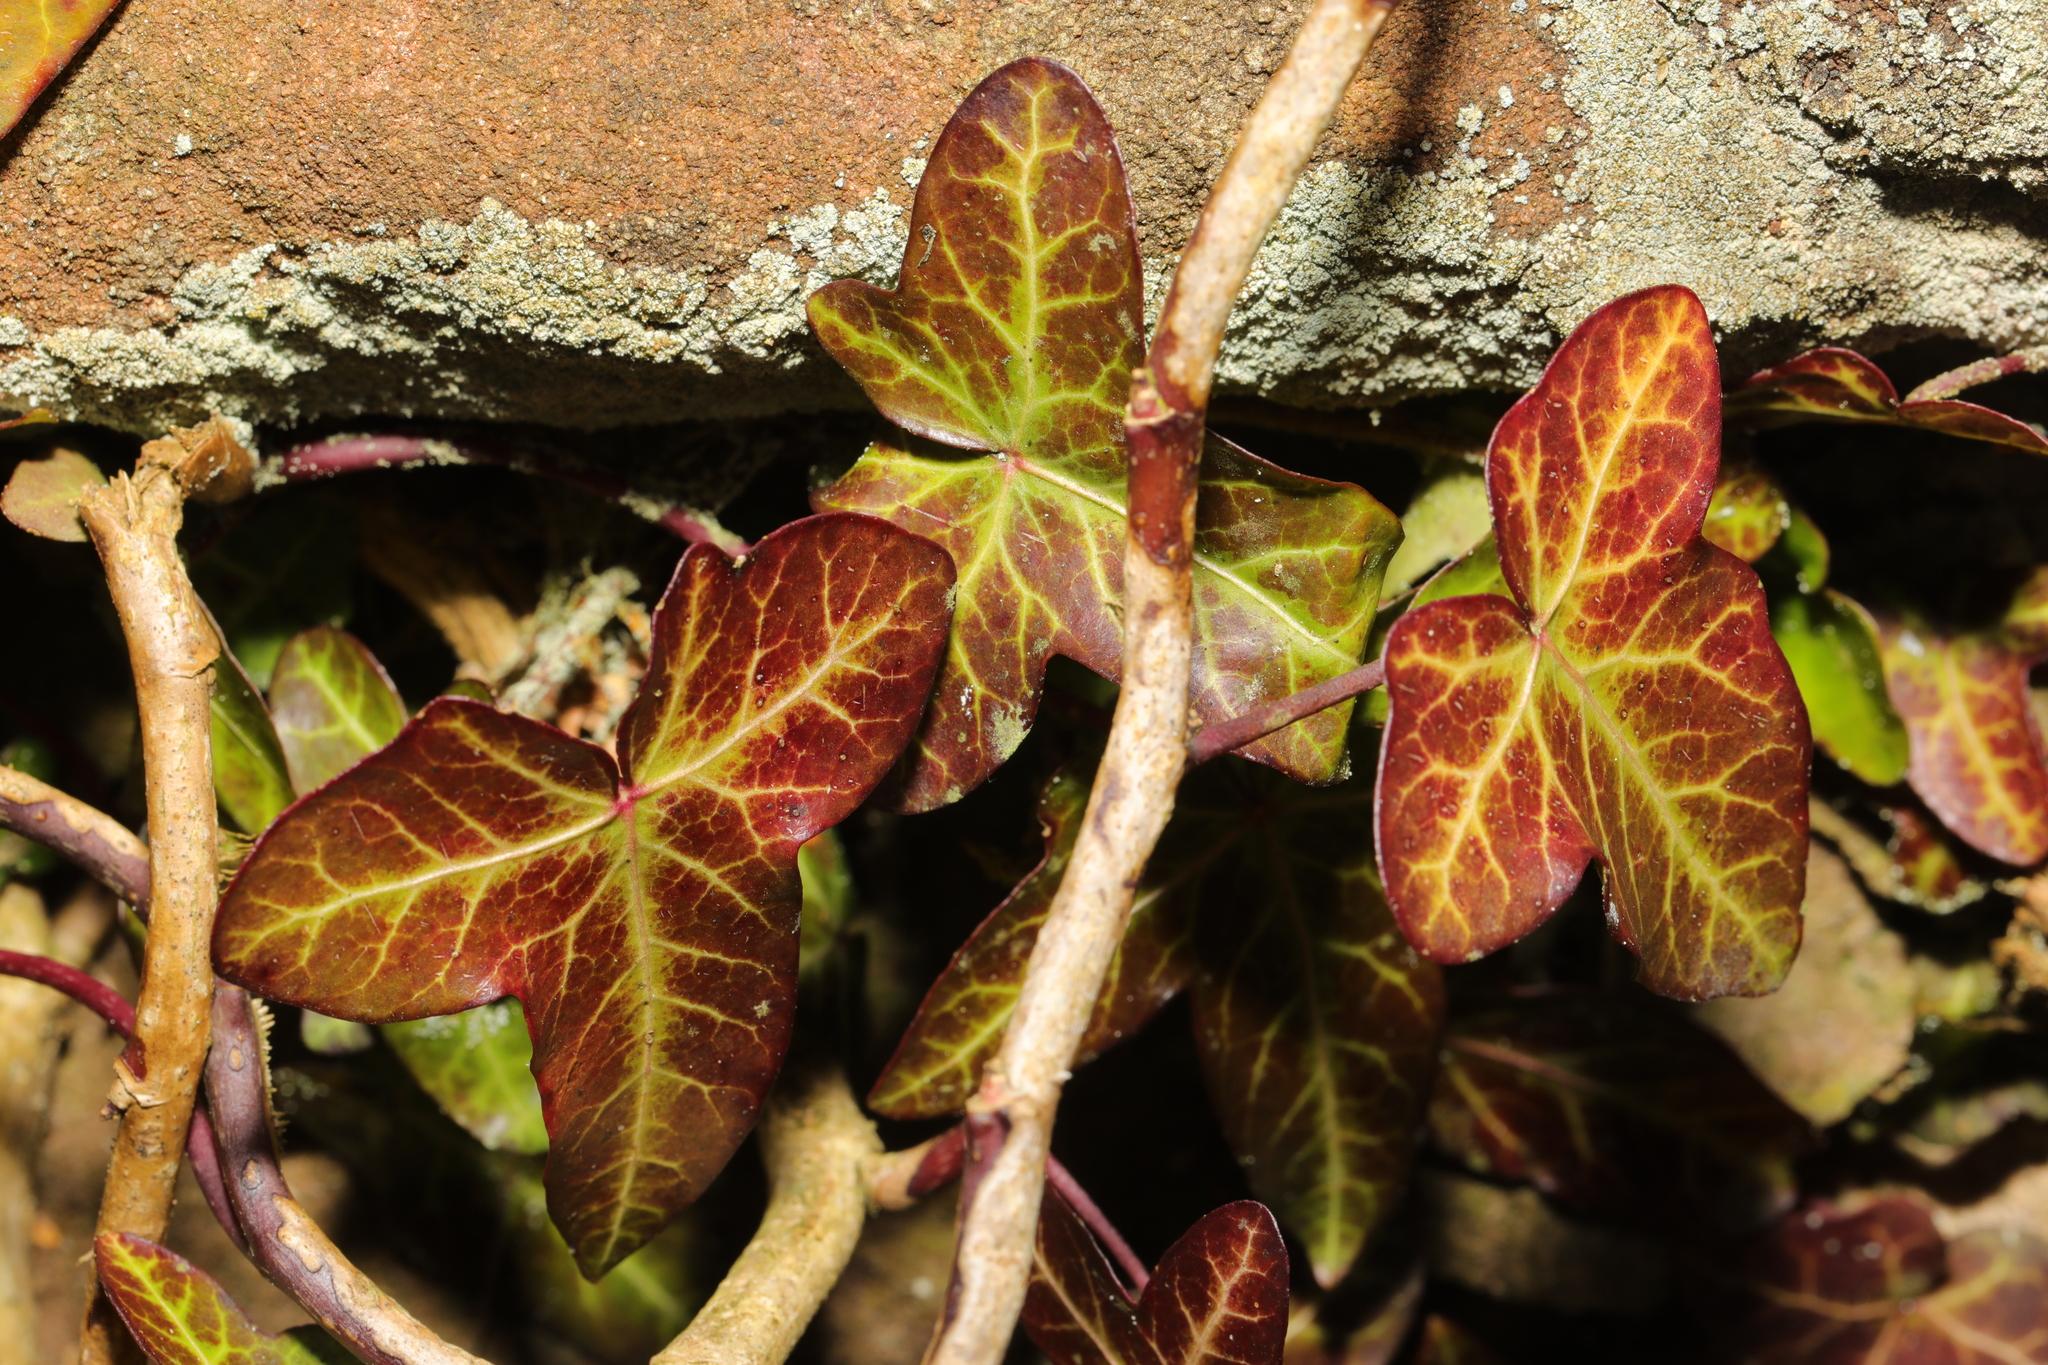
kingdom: Plantae
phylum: Tracheophyta
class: Magnoliopsida
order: Apiales
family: Araliaceae
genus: Hedera
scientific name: Hedera helix
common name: Ivy
